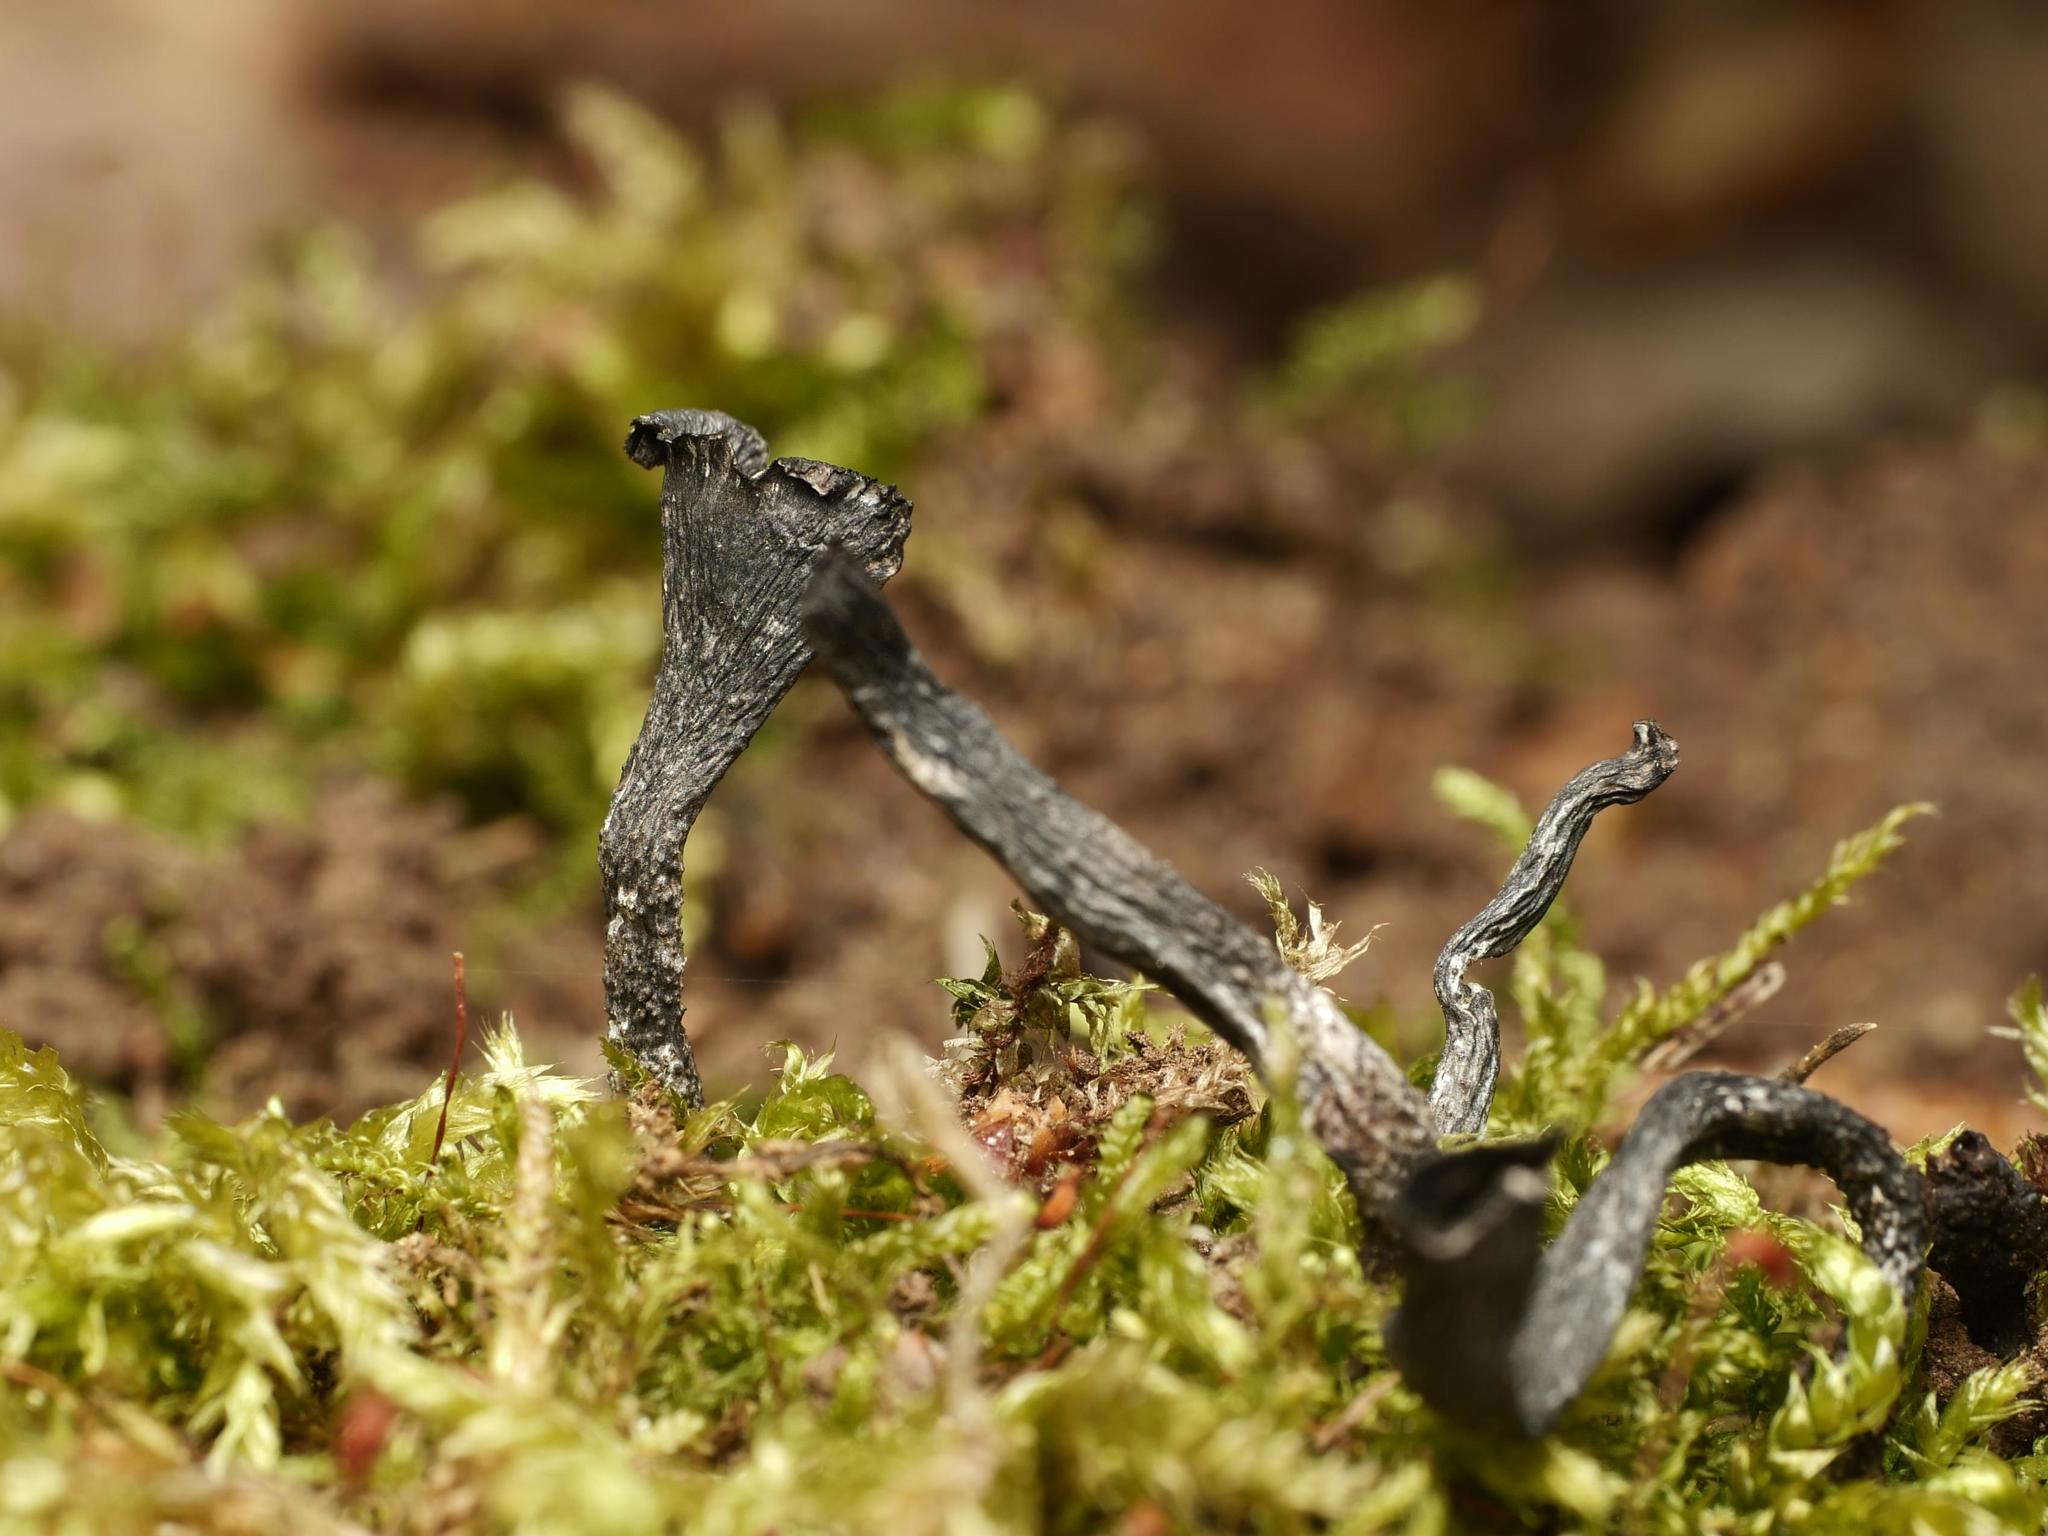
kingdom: Fungi
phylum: Ascomycota
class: Sordariomycetes
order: Xylariales
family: Xylariaceae
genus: Xylaria
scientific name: Xylaria hypoxylon
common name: Candle-snuff fungus
